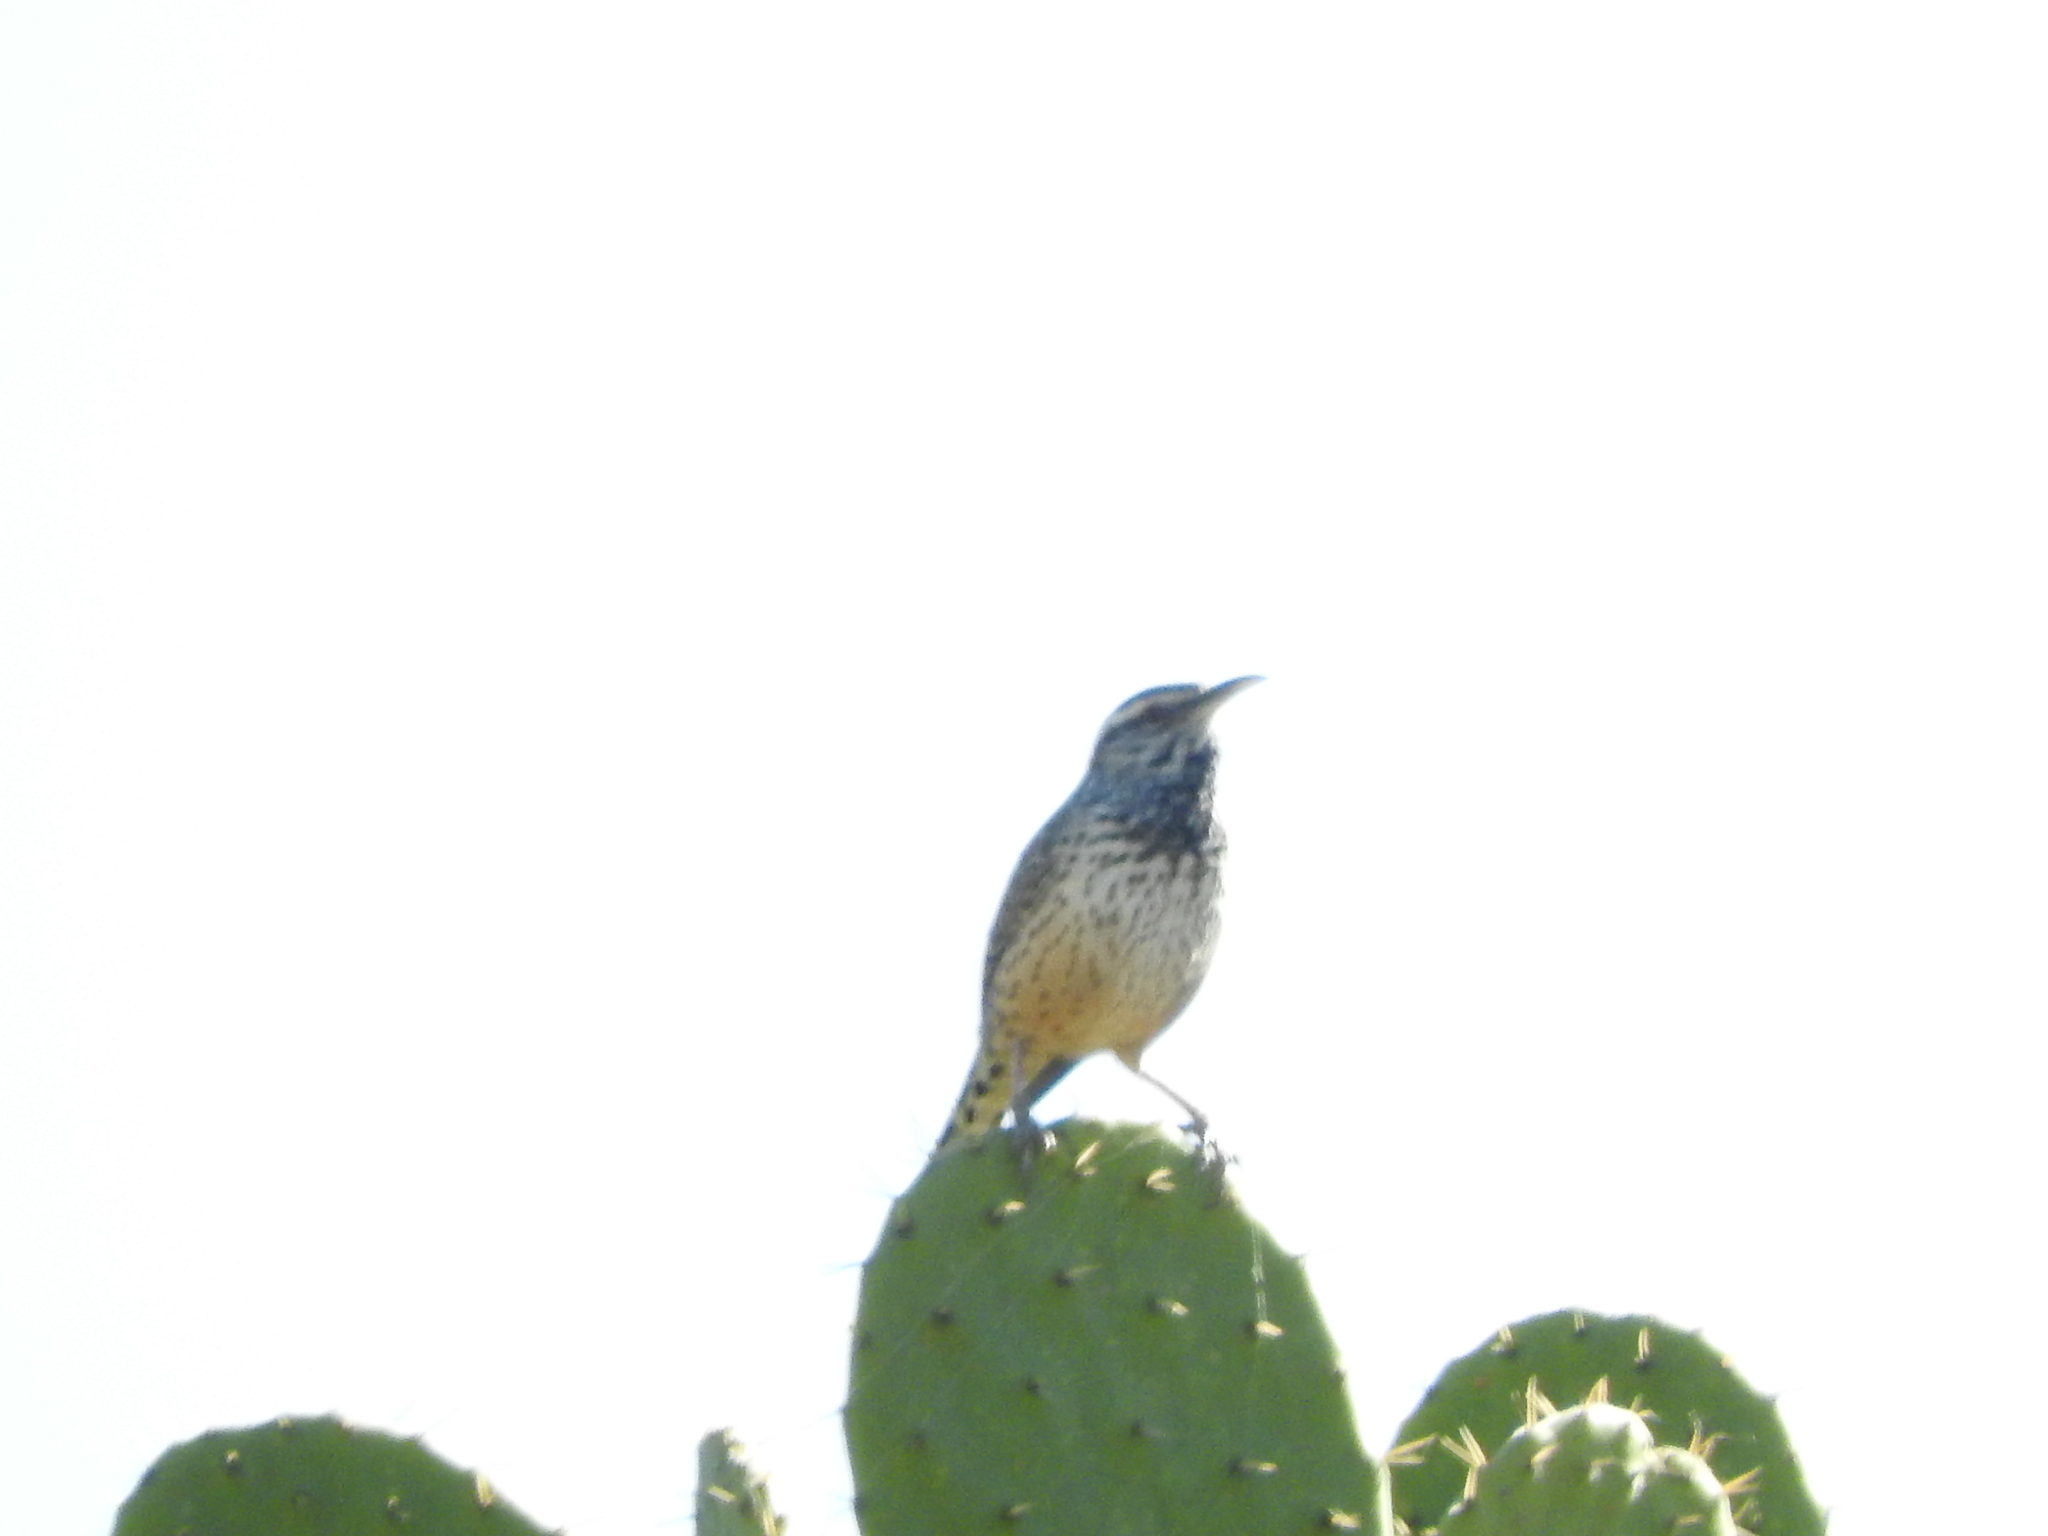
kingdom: Animalia
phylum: Chordata
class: Aves
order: Passeriformes
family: Troglodytidae
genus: Campylorhynchus
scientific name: Campylorhynchus brunneicapillus
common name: Cactus wren
